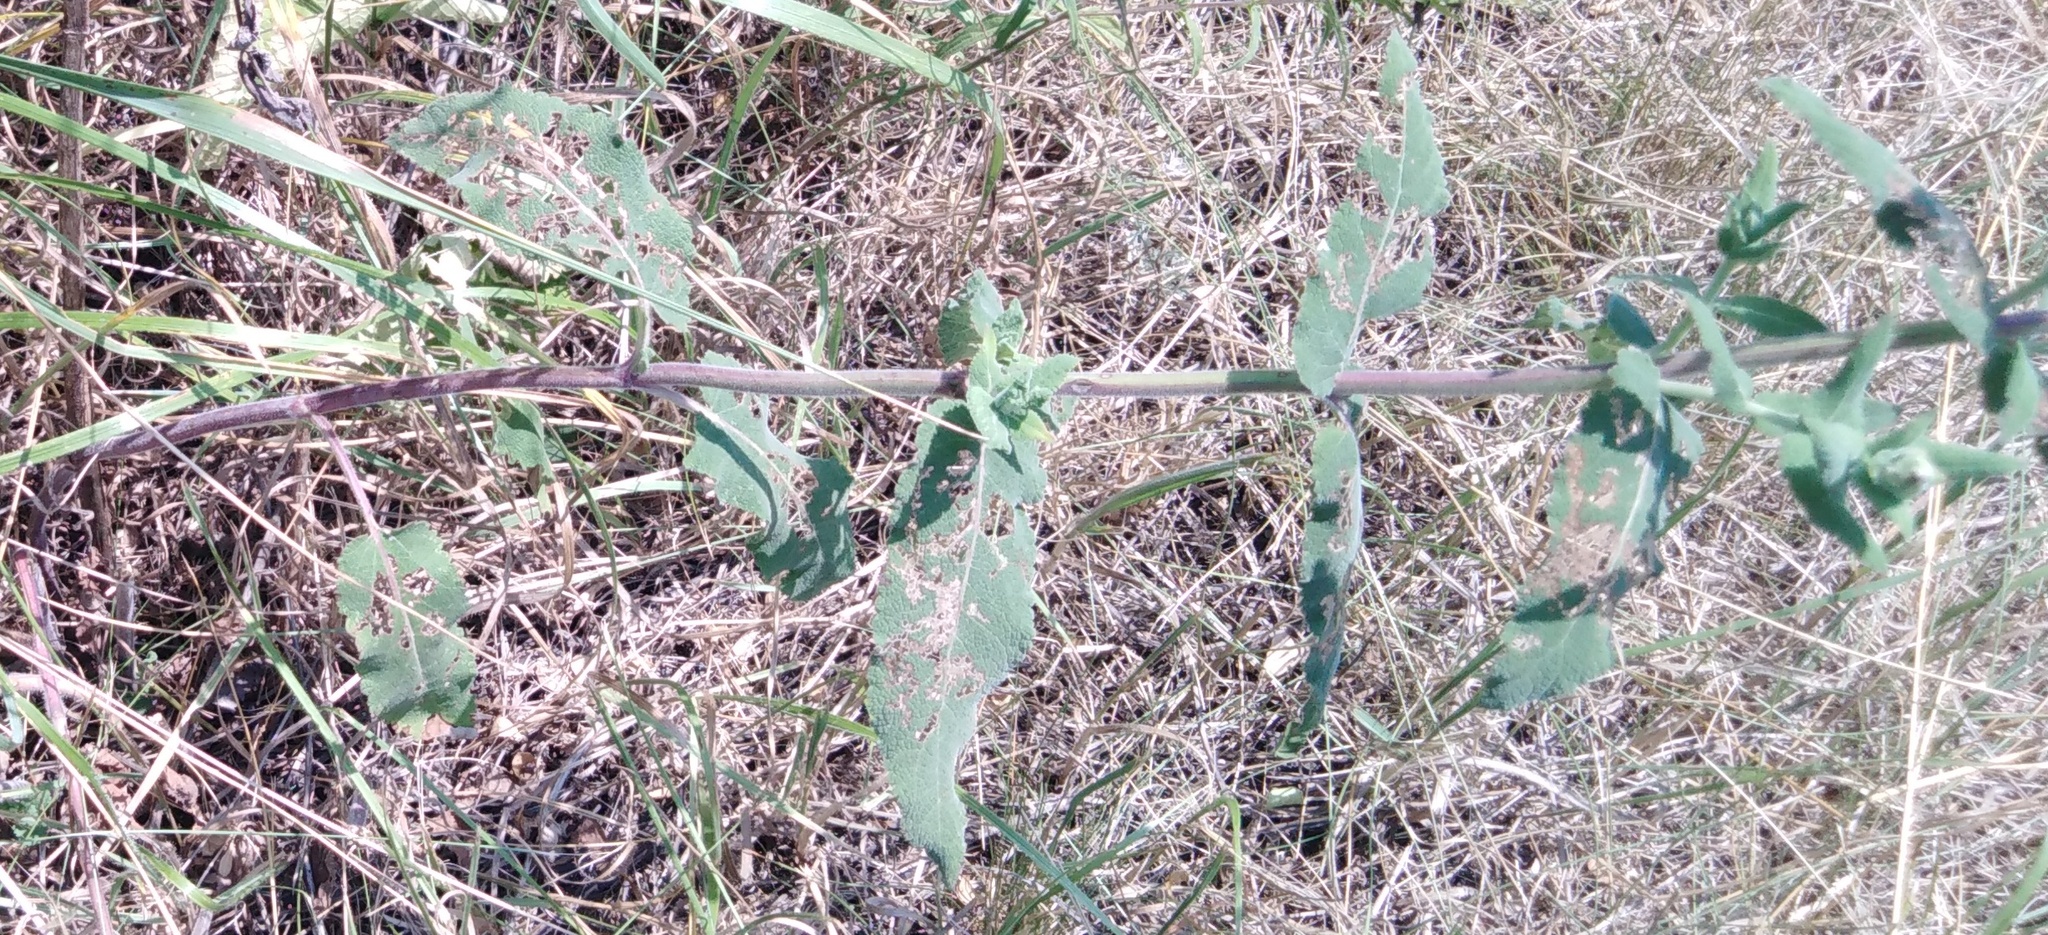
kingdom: Plantae
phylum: Tracheophyta
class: Magnoliopsida
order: Lamiales
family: Lamiaceae
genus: Salvia
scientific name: Salvia nemorosa
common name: Balkan clary
